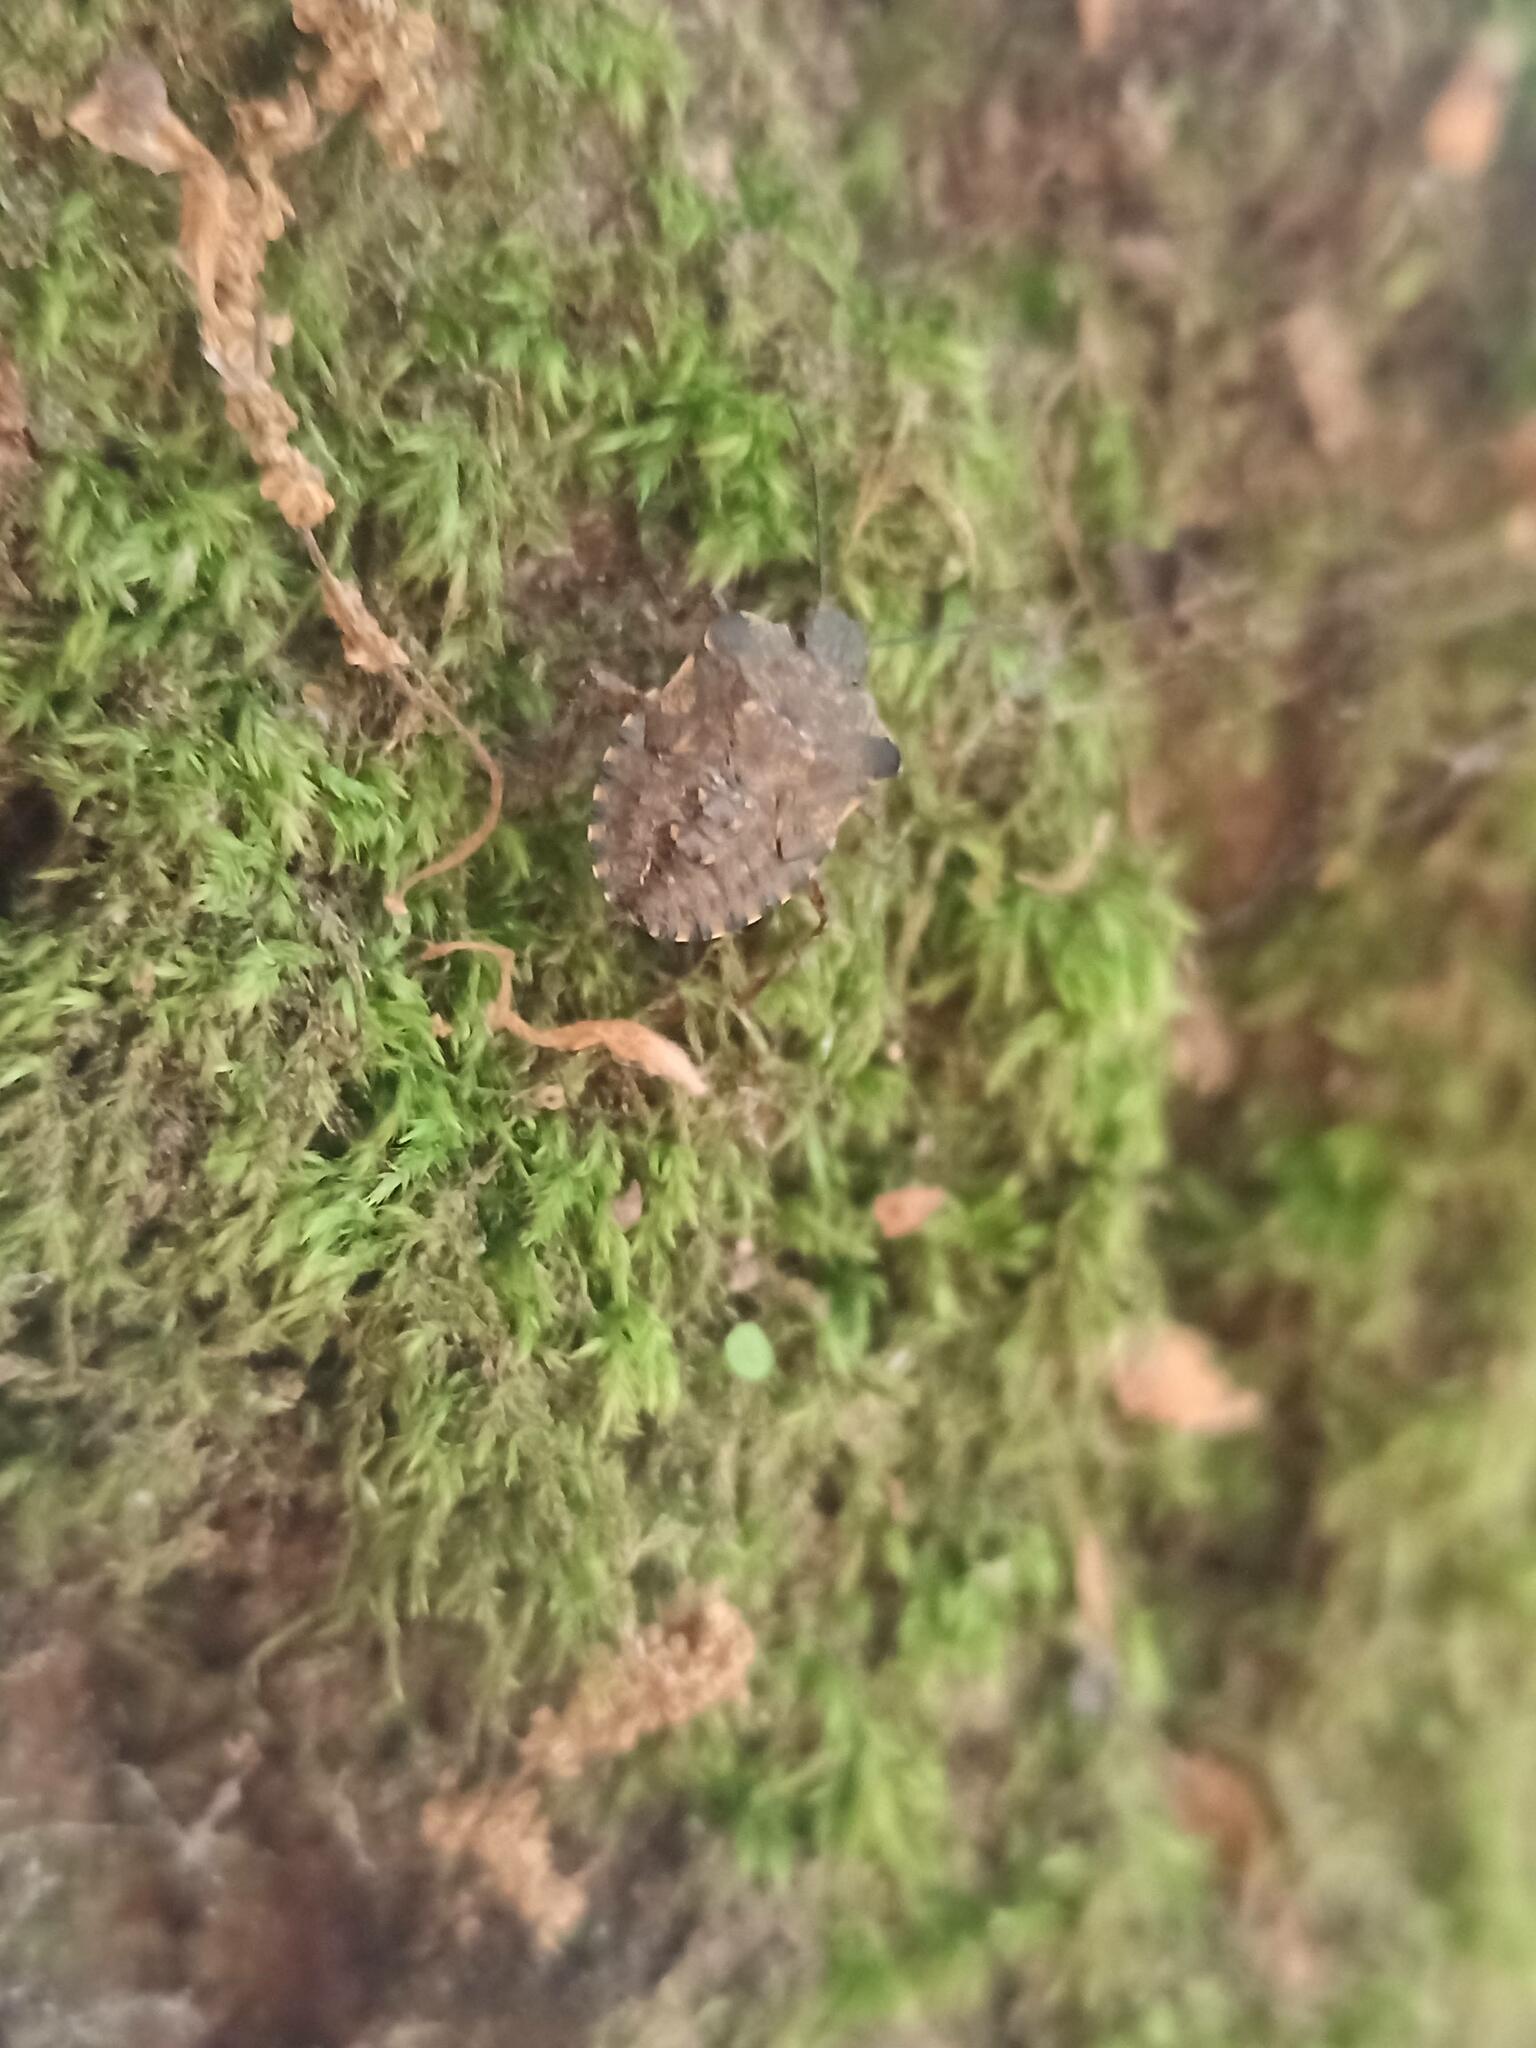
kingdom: Animalia
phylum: Arthropoda
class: Insecta
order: Hemiptera
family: Pentatomidae
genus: Pentatoma
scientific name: Pentatoma rufipes
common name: Forest bug
